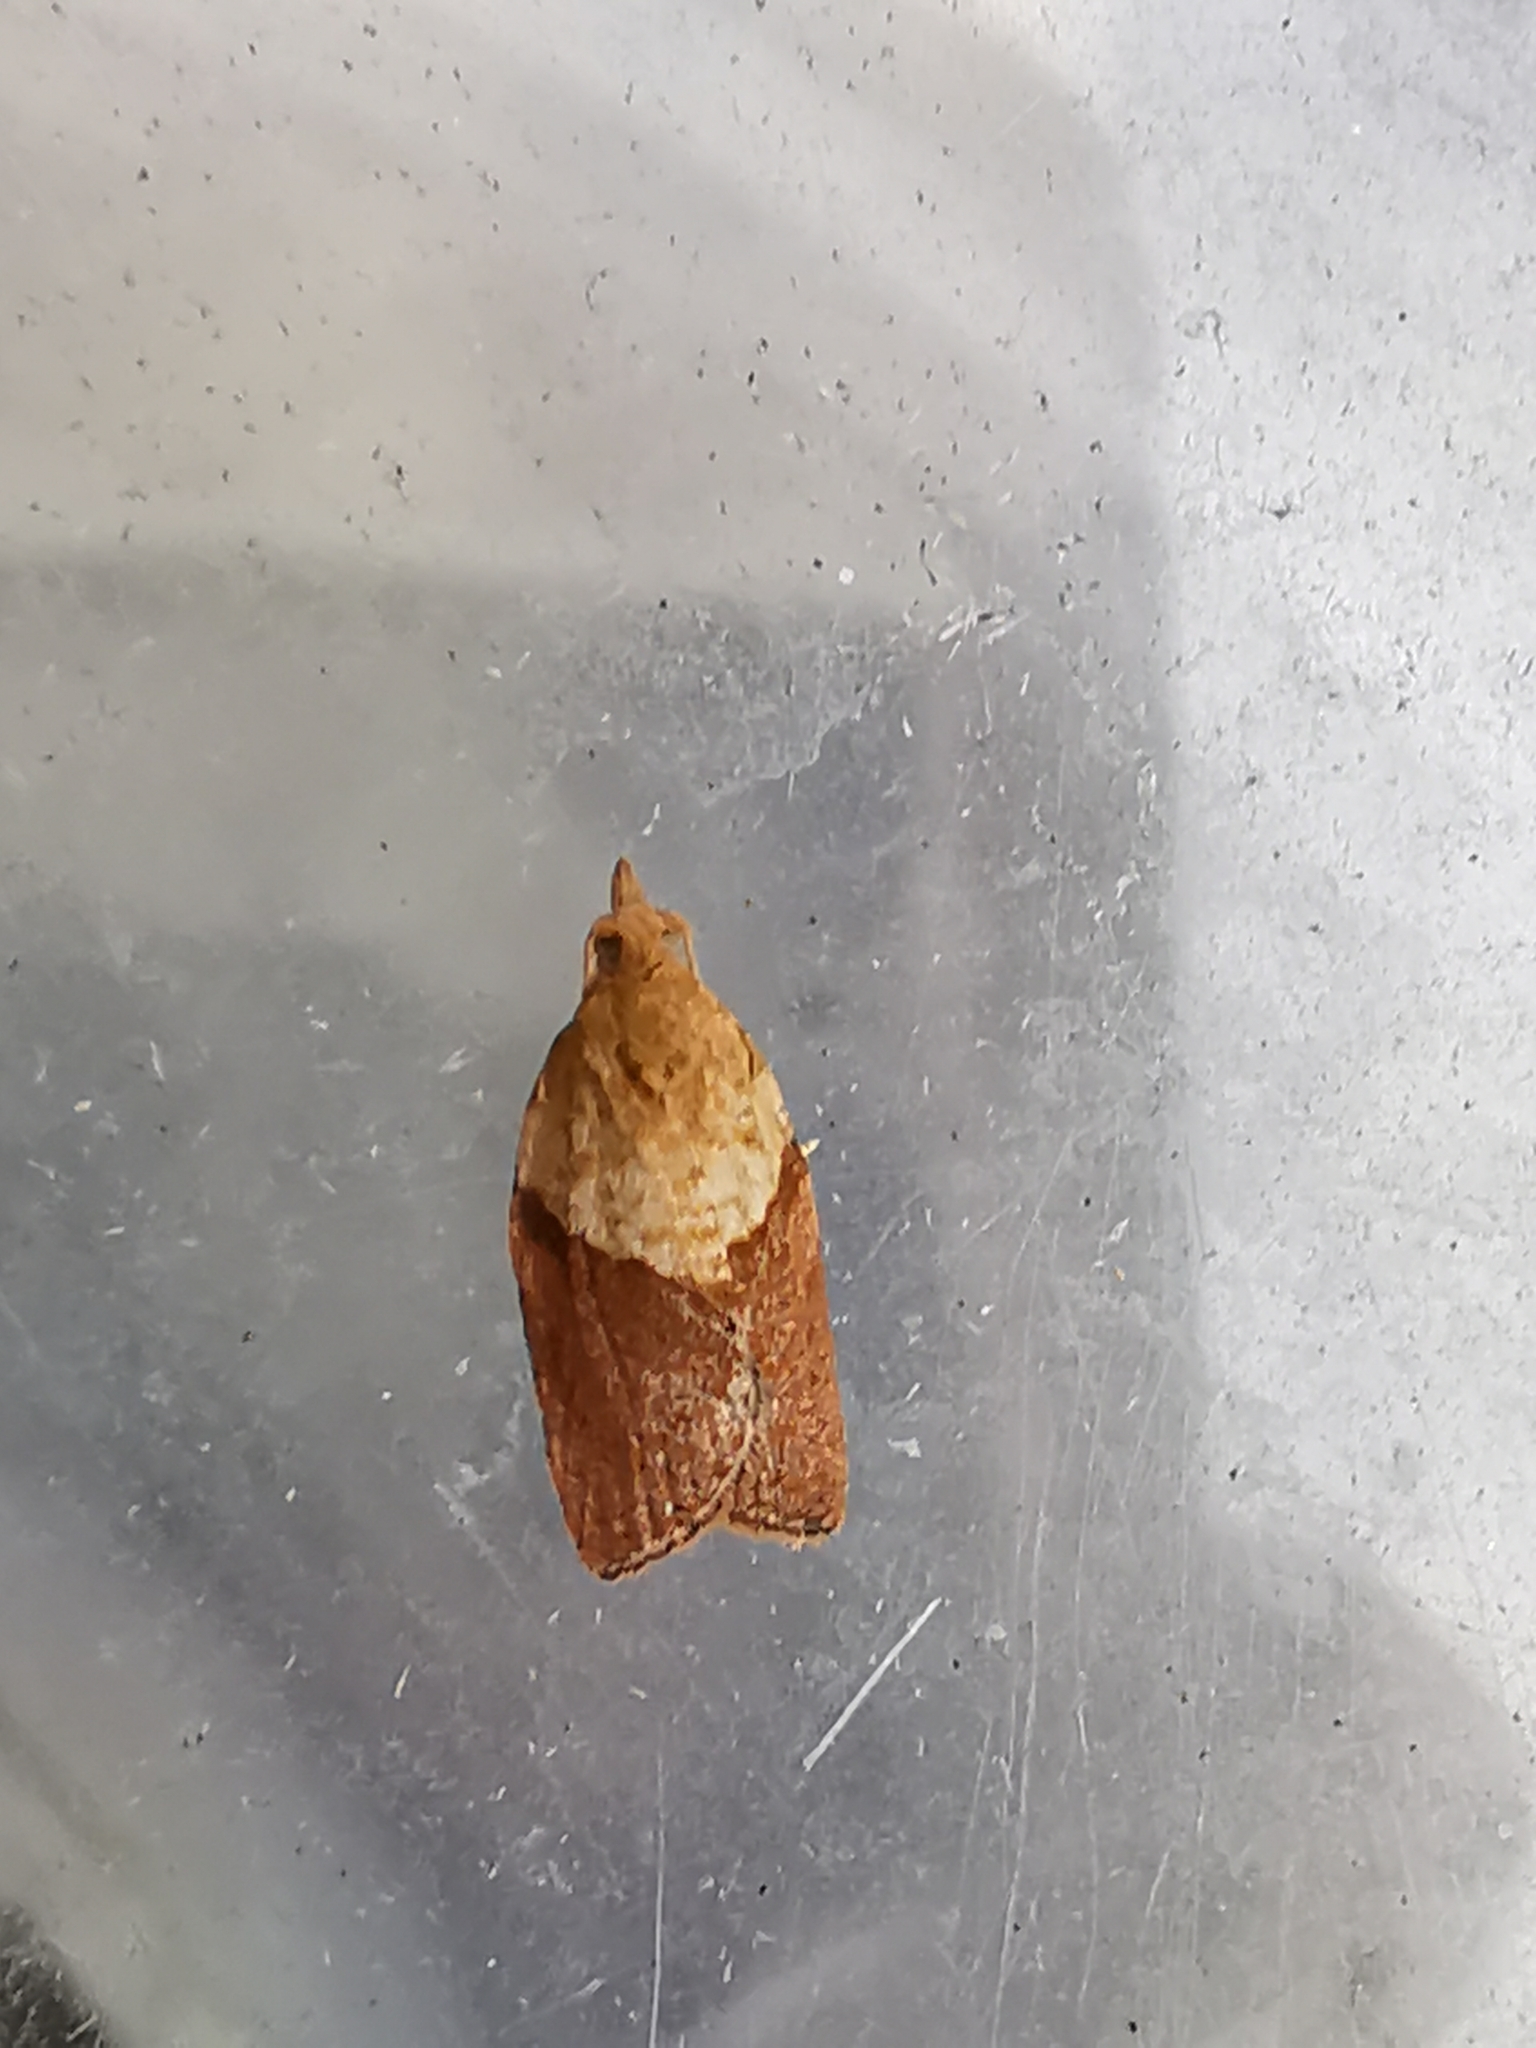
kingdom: Animalia
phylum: Arthropoda
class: Insecta
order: Lepidoptera
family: Tortricidae
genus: Epiphyas
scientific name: Epiphyas postvittana
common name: Light brown apple moth
